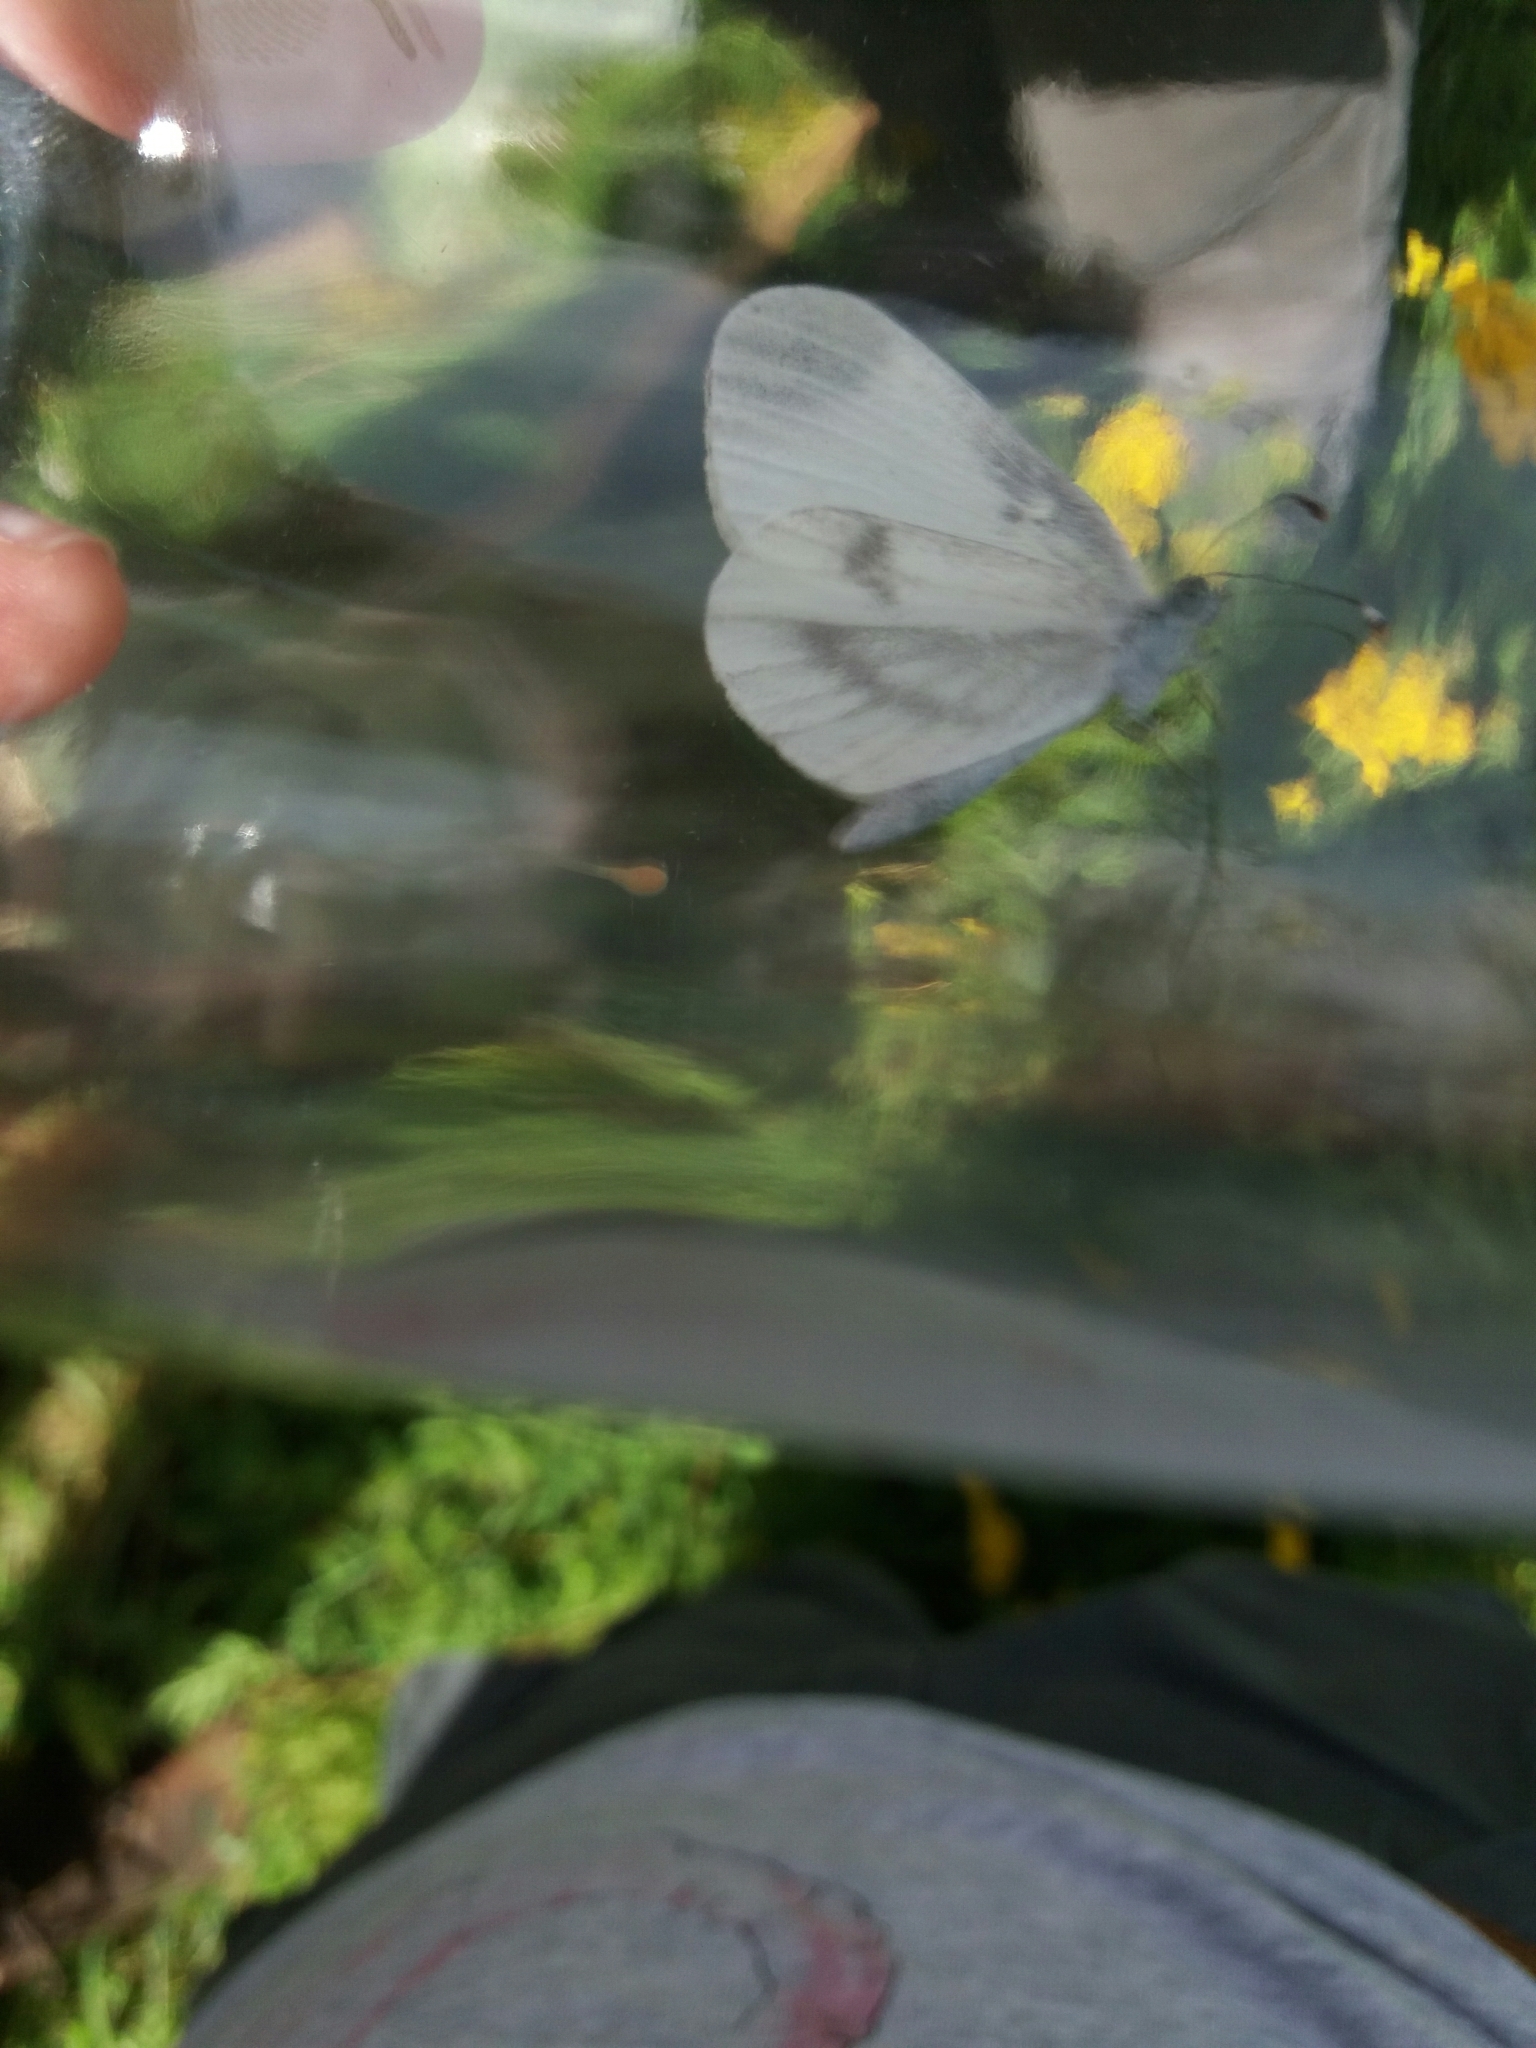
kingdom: Animalia
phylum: Arthropoda
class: Insecta
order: Lepidoptera
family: Pieridae
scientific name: Pieridae
